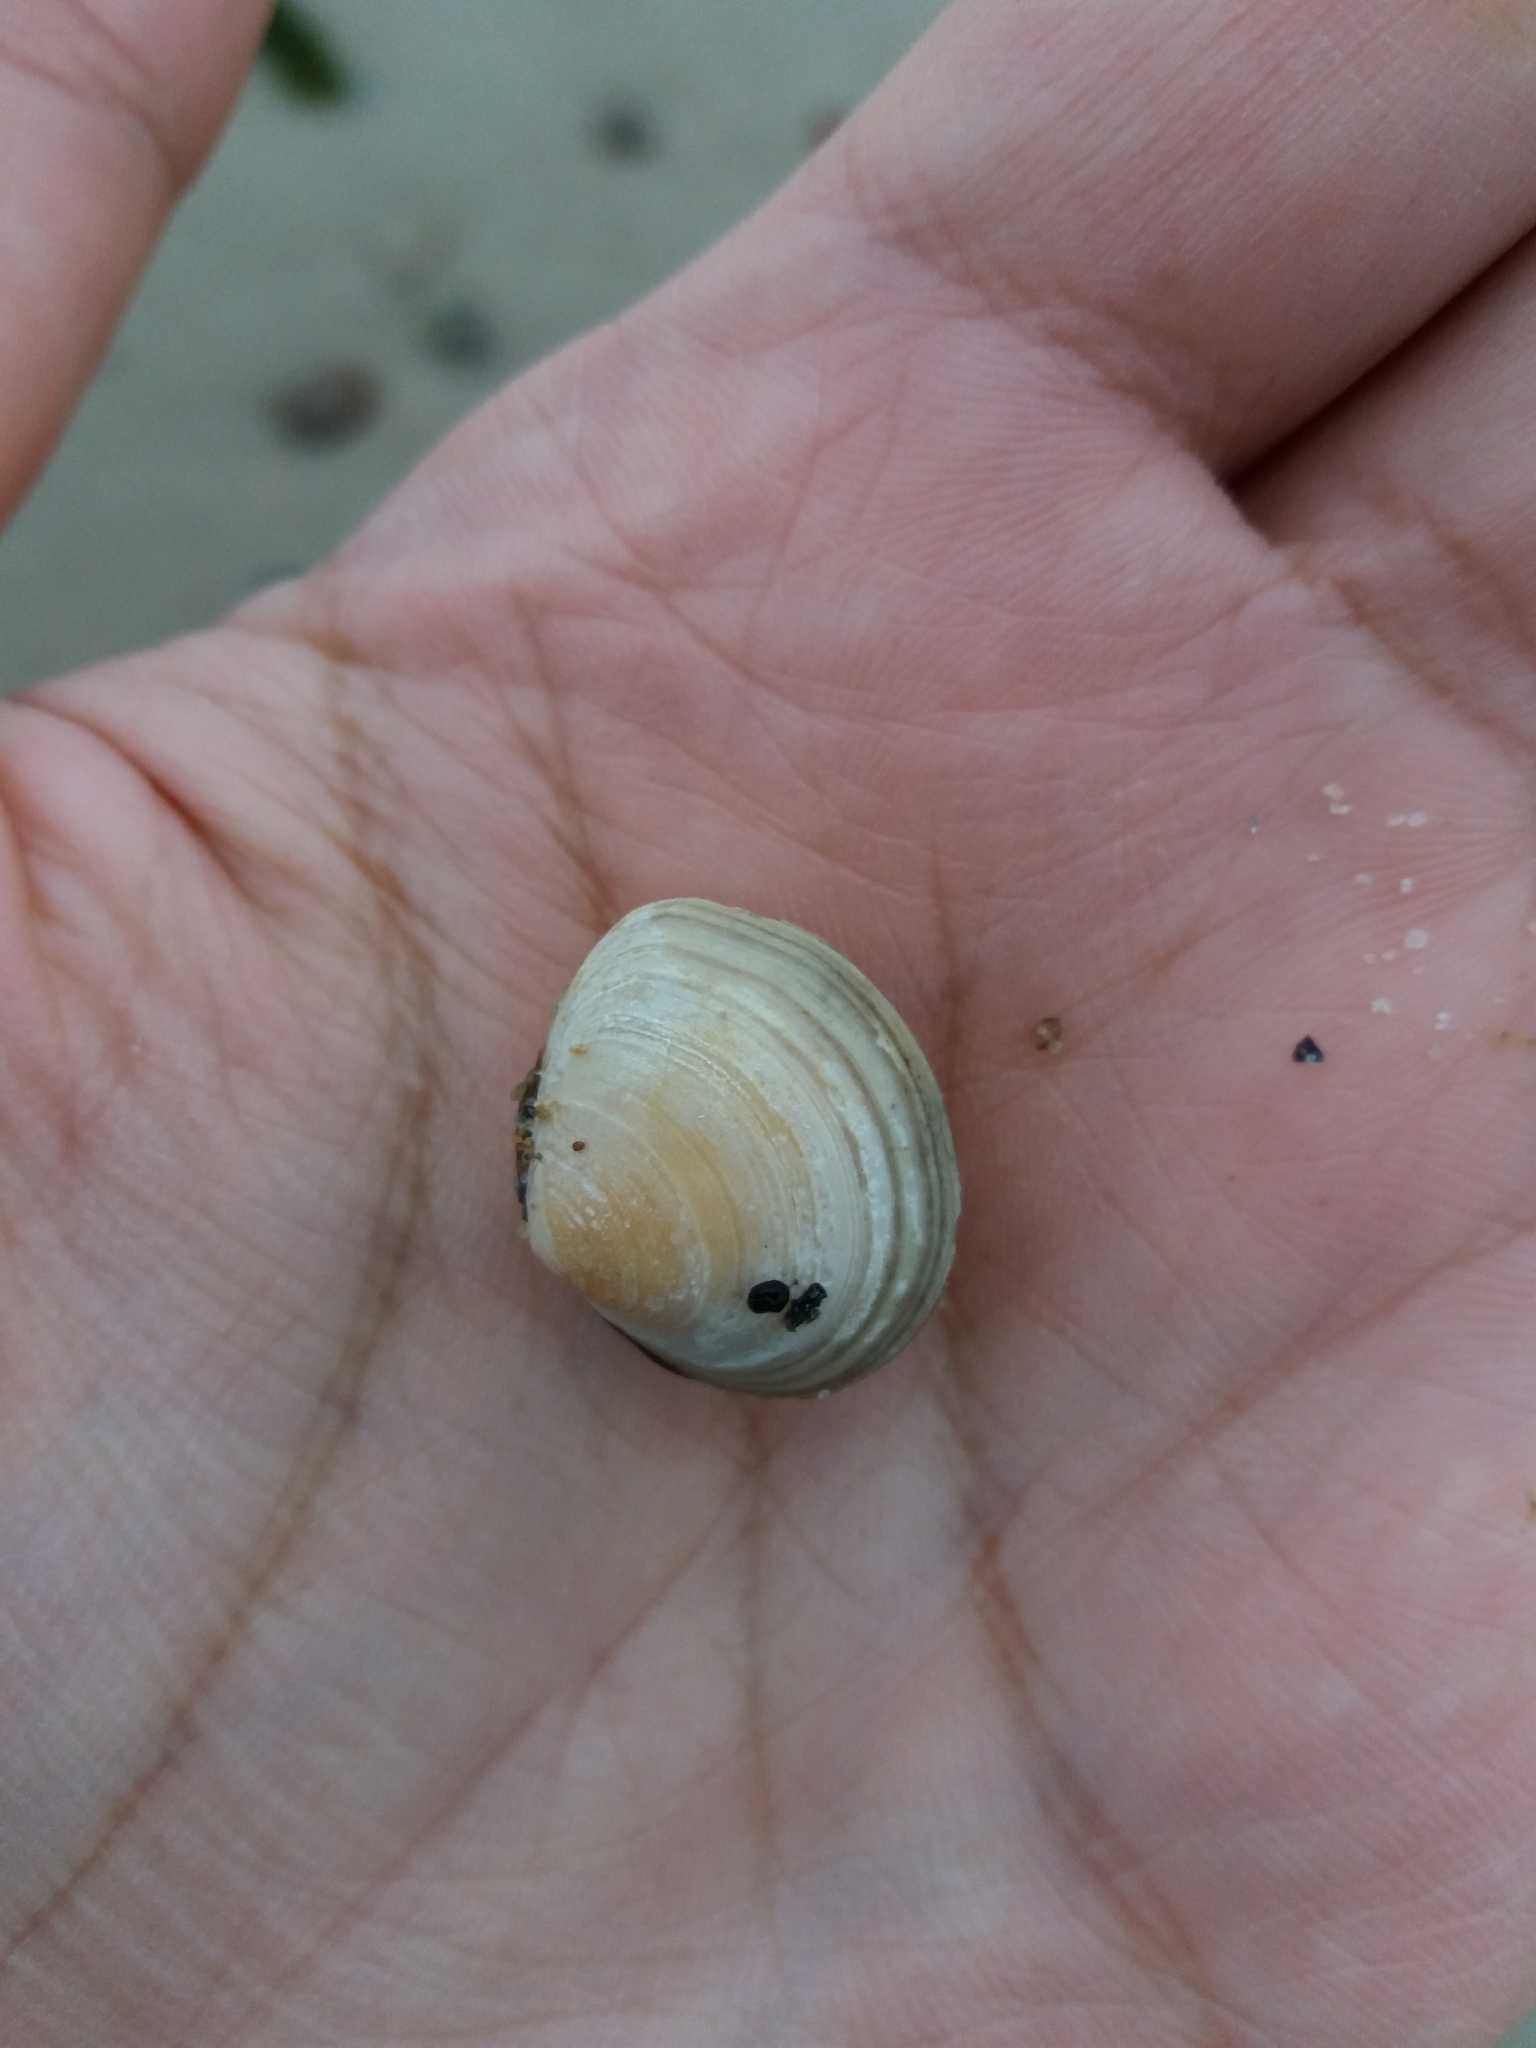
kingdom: Animalia
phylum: Mollusca
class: Bivalvia
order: Cardiida
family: Tellinidae
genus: Macoma
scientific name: Macoma balthica
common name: Baltic tellin
